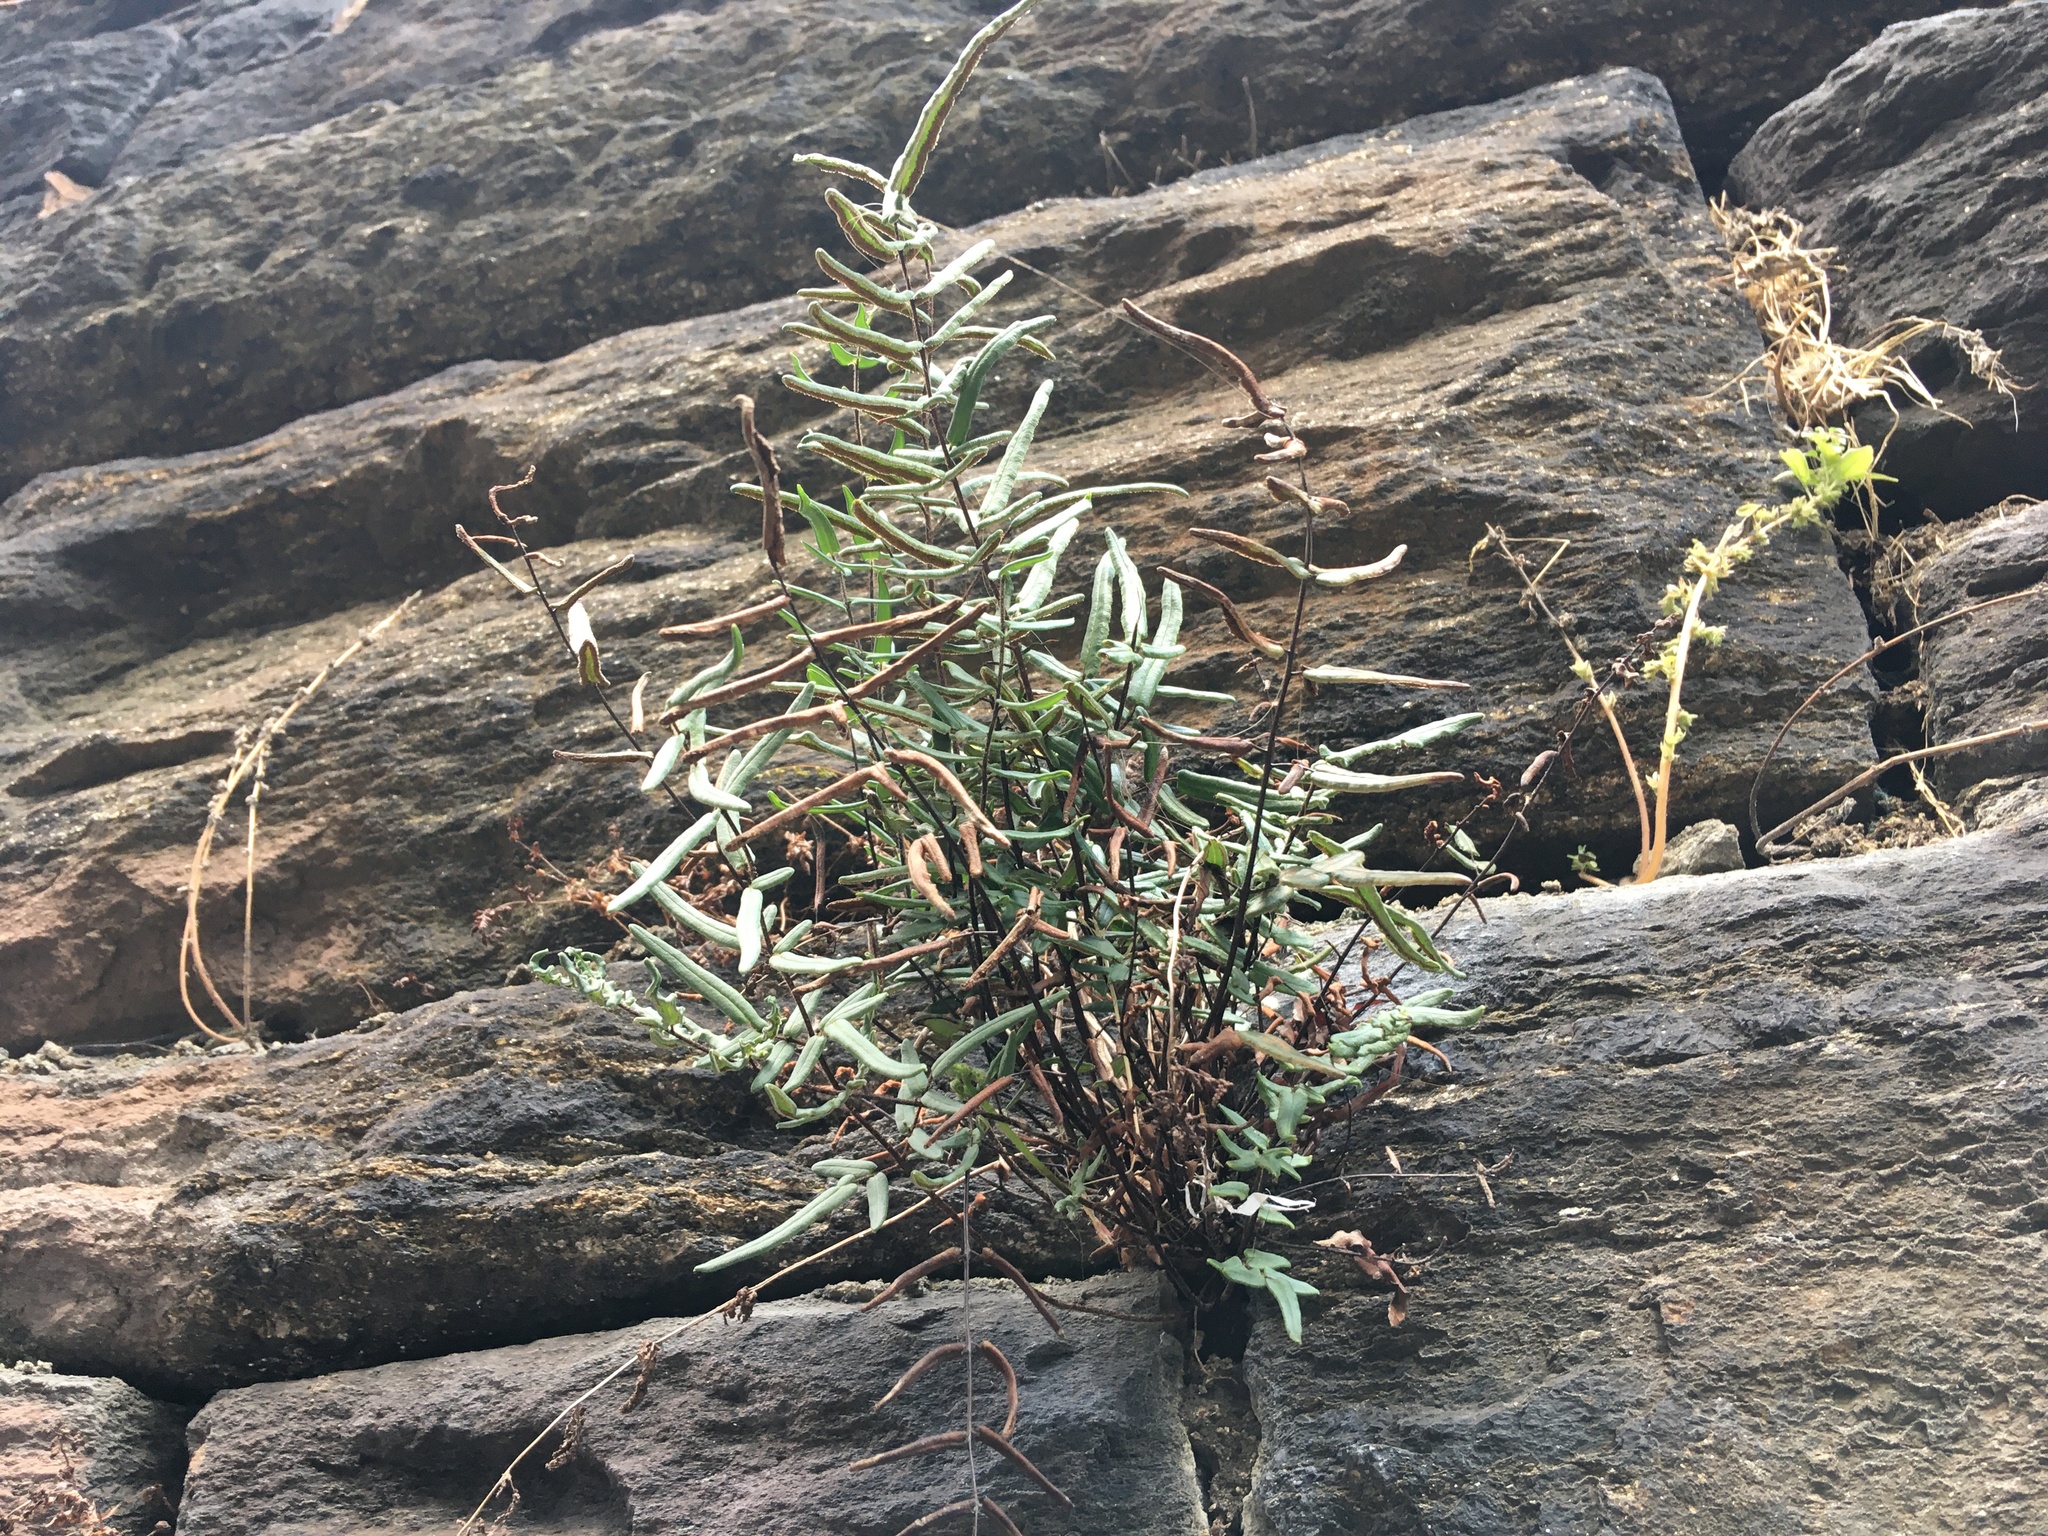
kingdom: Plantae
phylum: Tracheophyta
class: Polypodiopsida
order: Polypodiales
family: Pteridaceae
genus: Pellaea
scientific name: Pellaea atropurpurea
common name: Hairy cliffbrake
